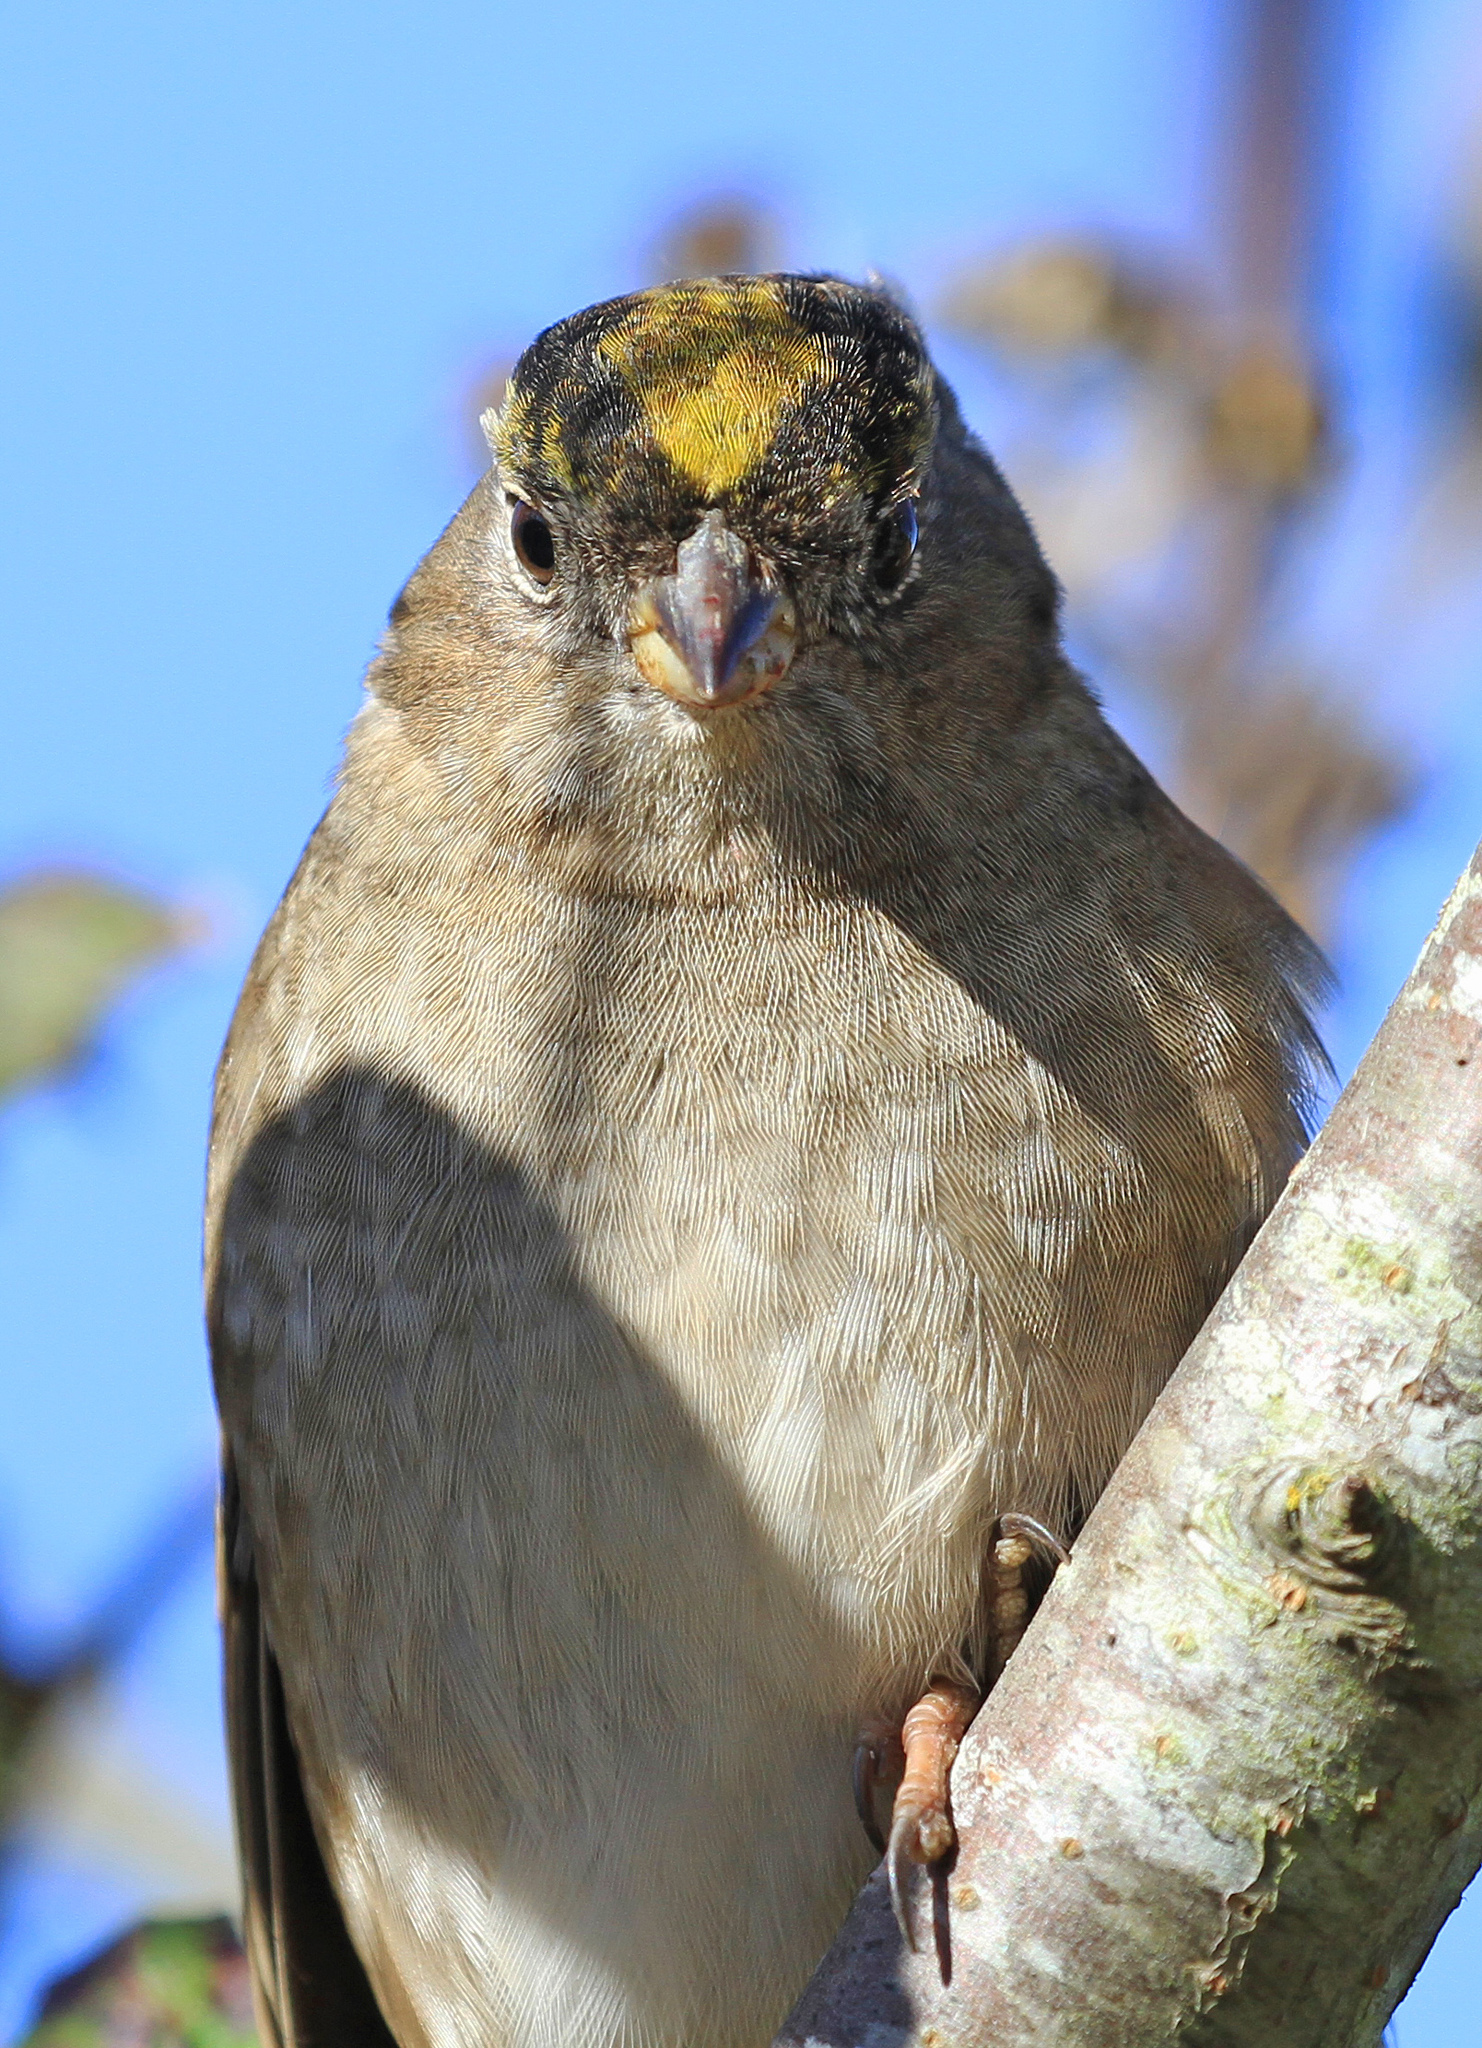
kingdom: Animalia
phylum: Chordata
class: Aves
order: Passeriformes
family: Passerellidae
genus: Zonotrichia
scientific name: Zonotrichia atricapilla
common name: Golden-crowned sparrow
